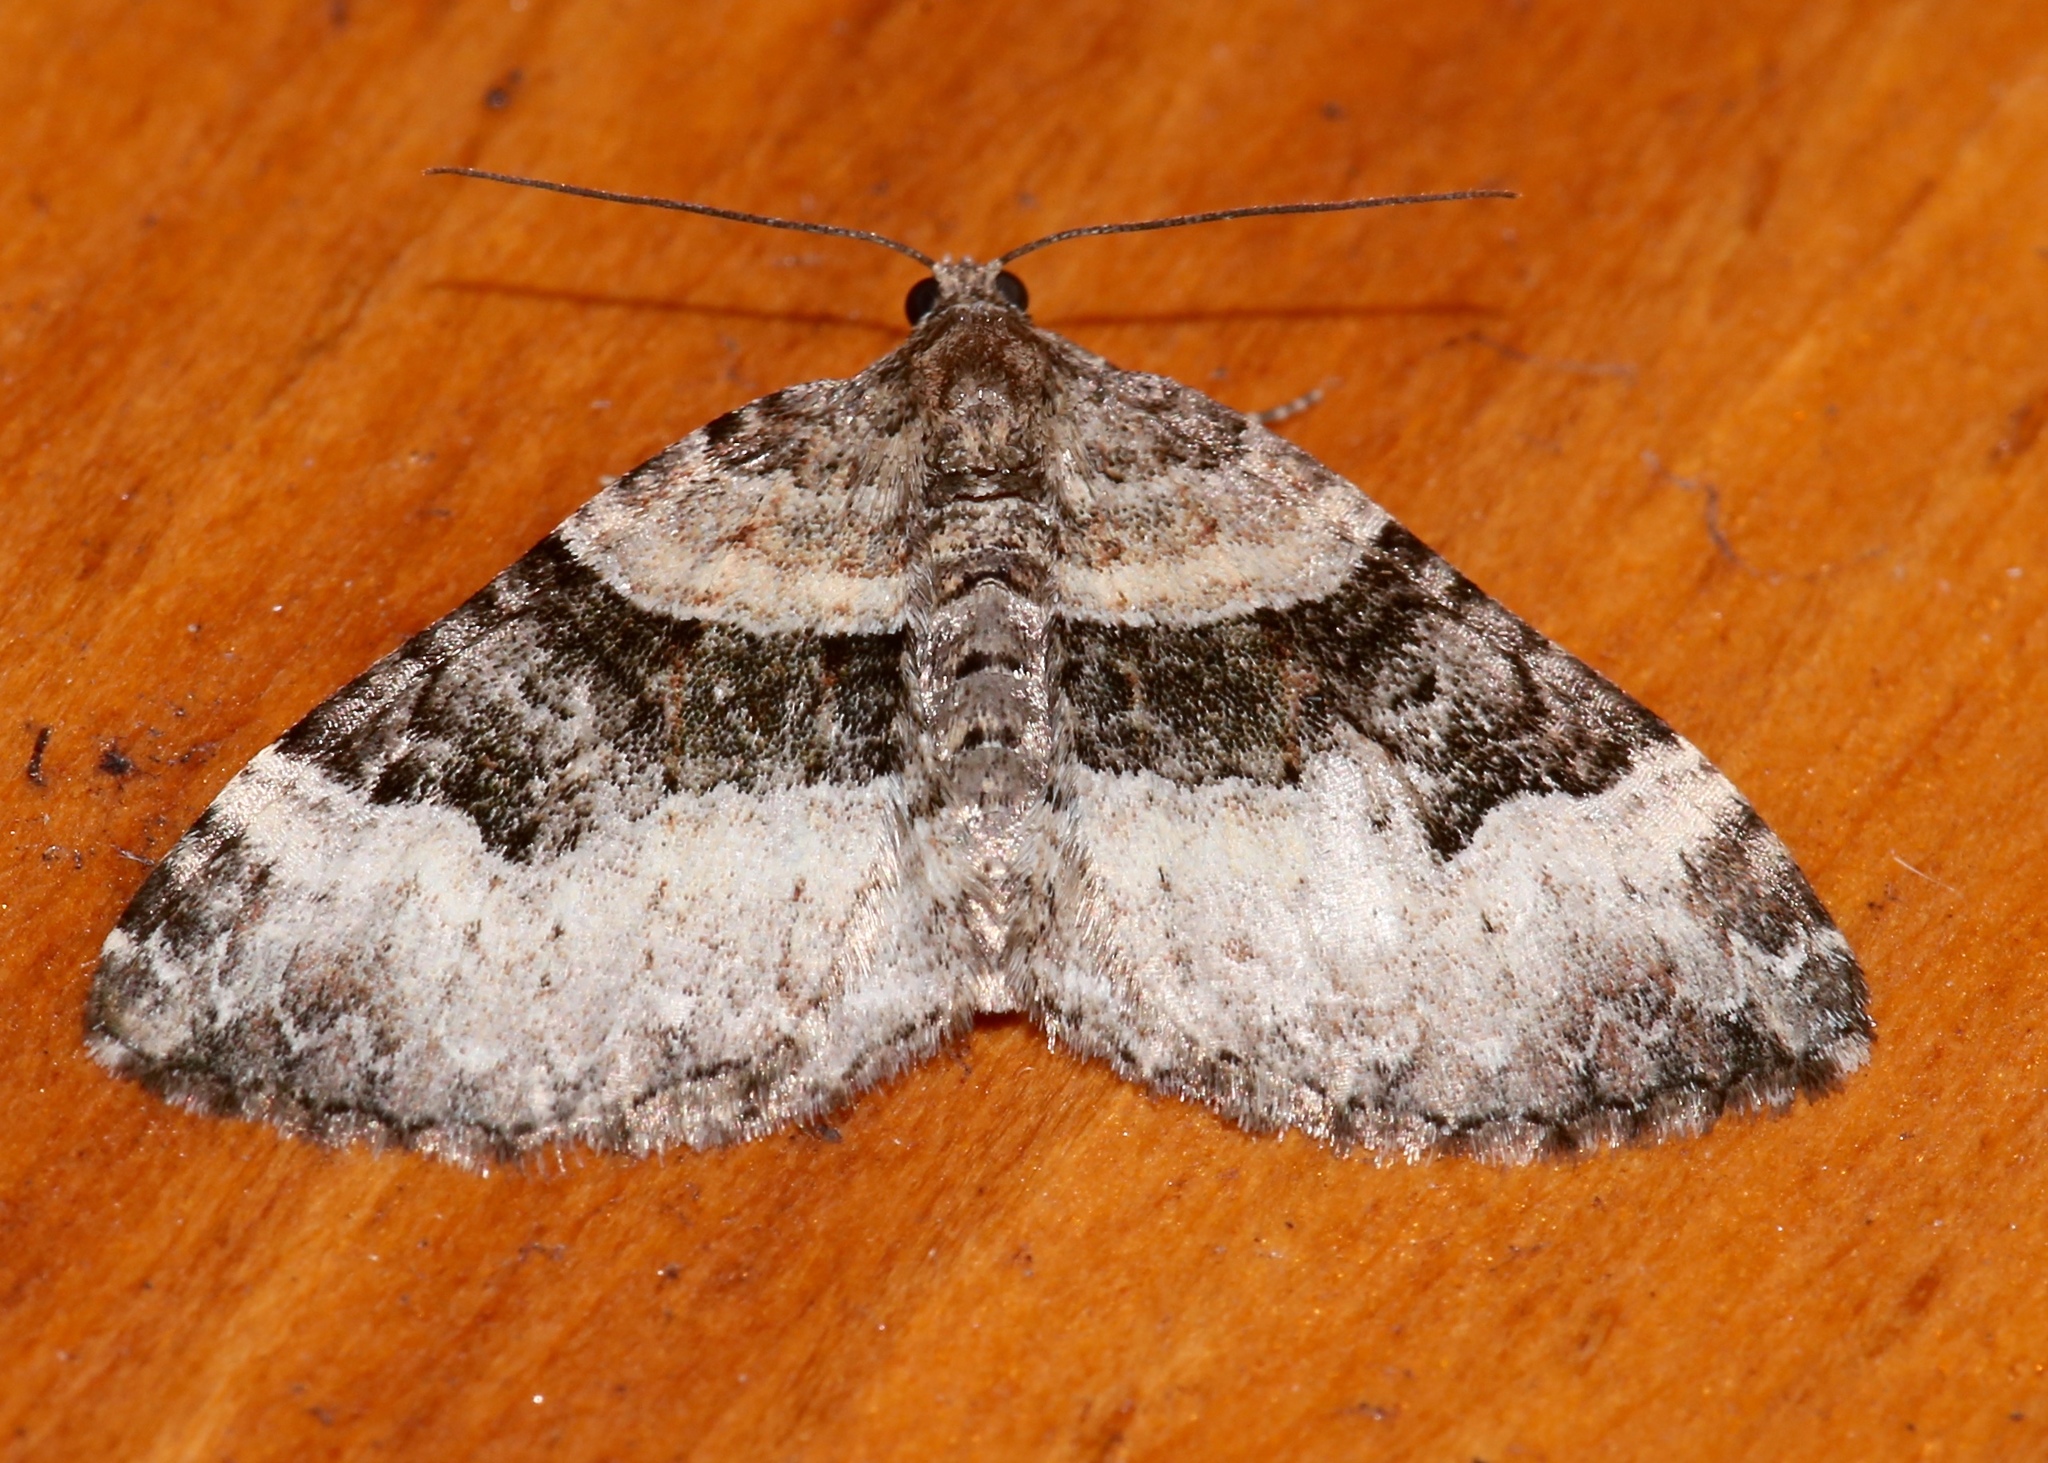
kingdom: Animalia
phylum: Arthropoda
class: Insecta
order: Lepidoptera
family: Geometridae
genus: Xanthorhoe
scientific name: Xanthorhoe lacustrata
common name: Toothed brown carpet
